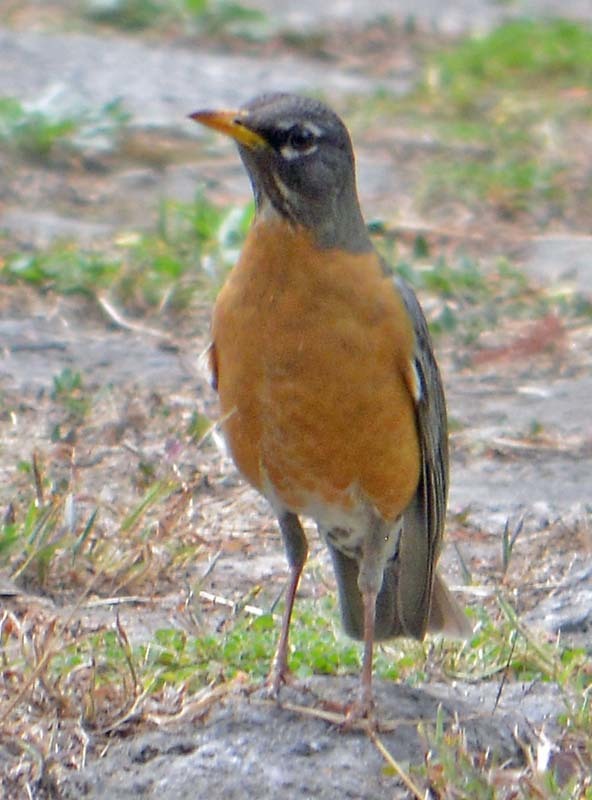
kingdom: Animalia
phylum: Chordata
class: Aves
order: Passeriformes
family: Turdidae
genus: Turdus
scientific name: Turdus migratorius
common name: American robin
